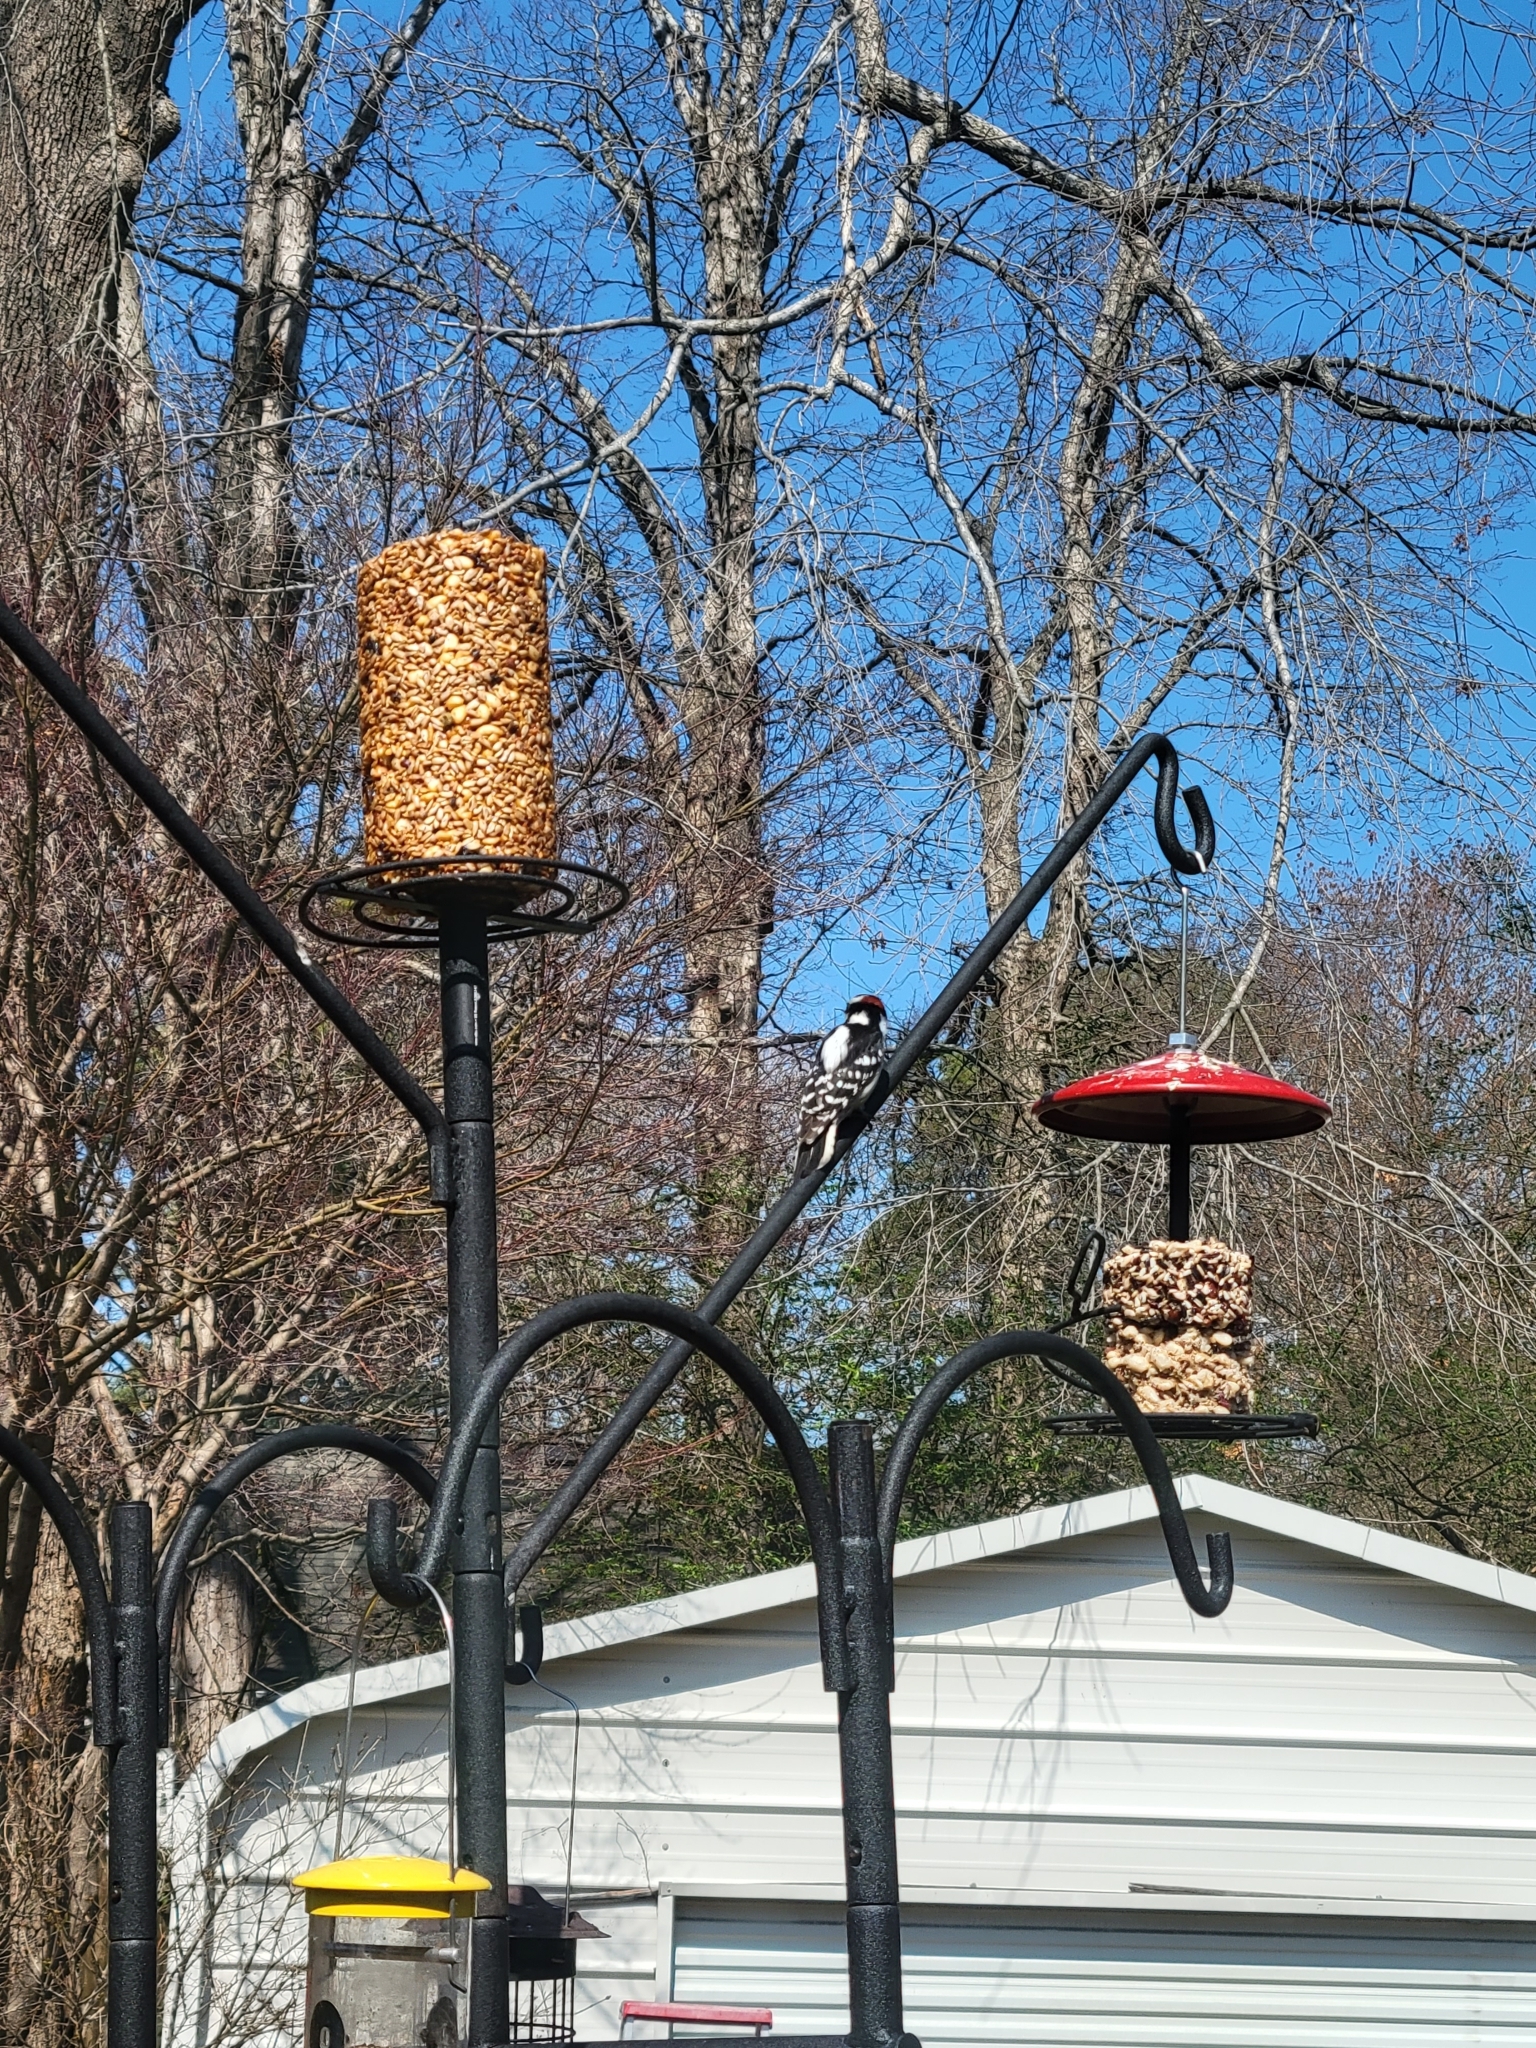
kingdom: Animalia
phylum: Chordata
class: Aves
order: Piciformes
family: Picidae
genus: Dryobates
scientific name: Dryobates pubescens
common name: Downy woodpecker
